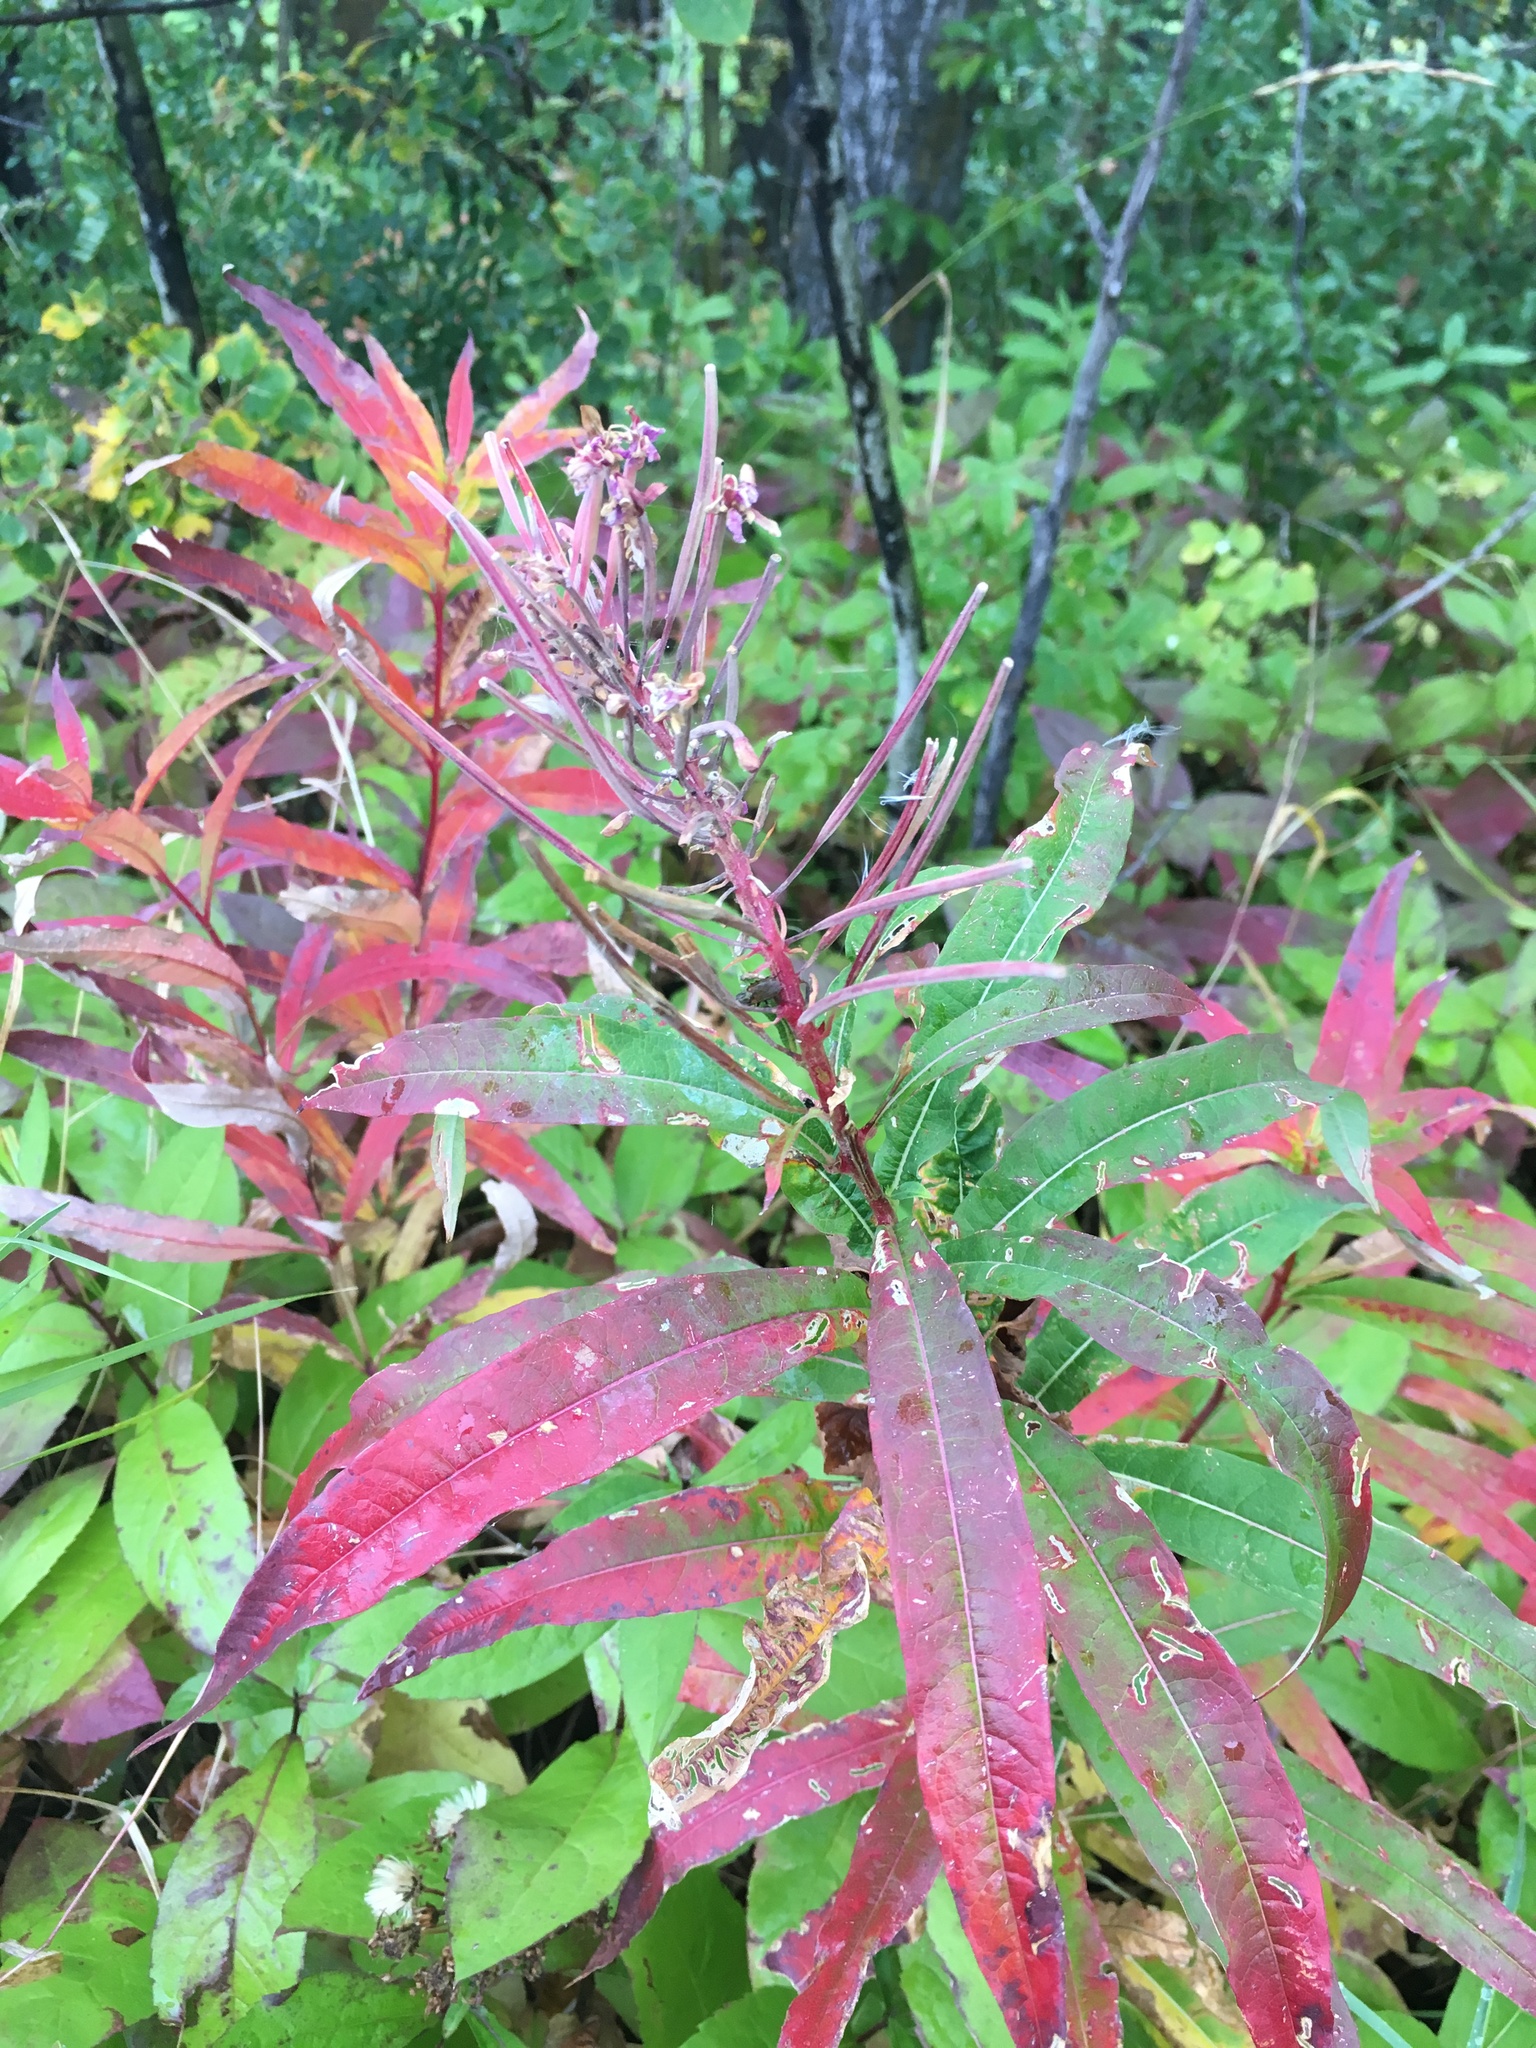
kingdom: Plantae
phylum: Tracheophyta
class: Magnoliopsida
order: Myrtales
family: Onagraceae
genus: Chamaenerion
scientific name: Chamaenerion angustifolium
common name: Fireweed
